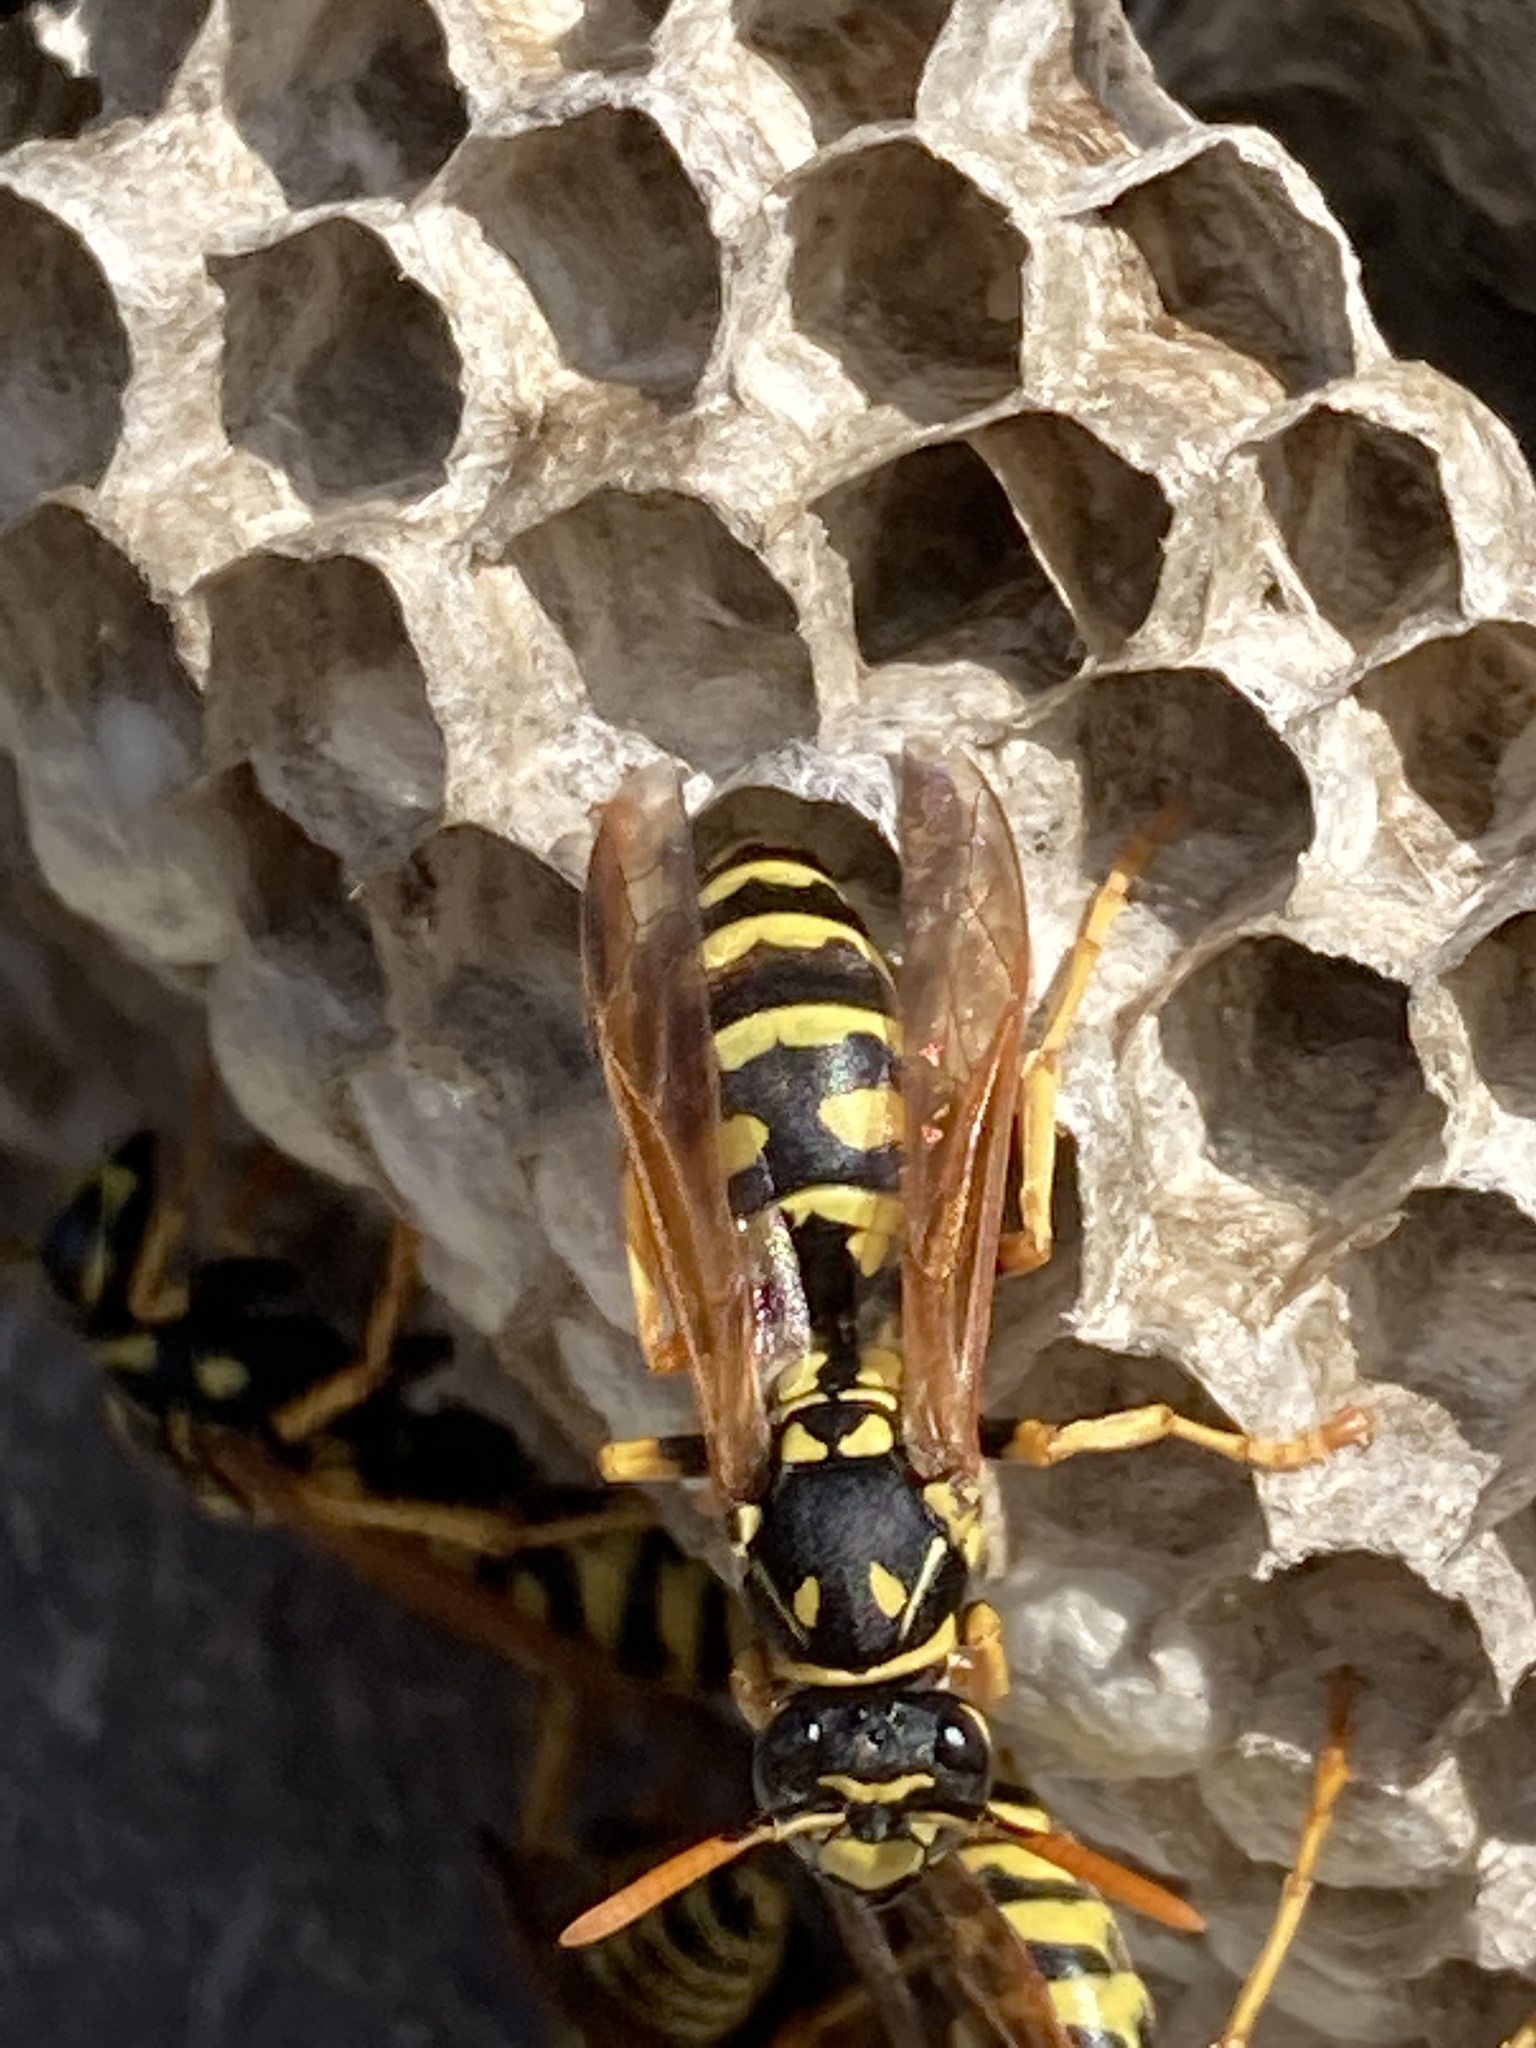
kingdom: Animalia
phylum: Arthropoda
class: Insecta
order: Hymenoptera
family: Eumenidae
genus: Polistes
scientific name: Polistes dominula
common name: Paper wasp
